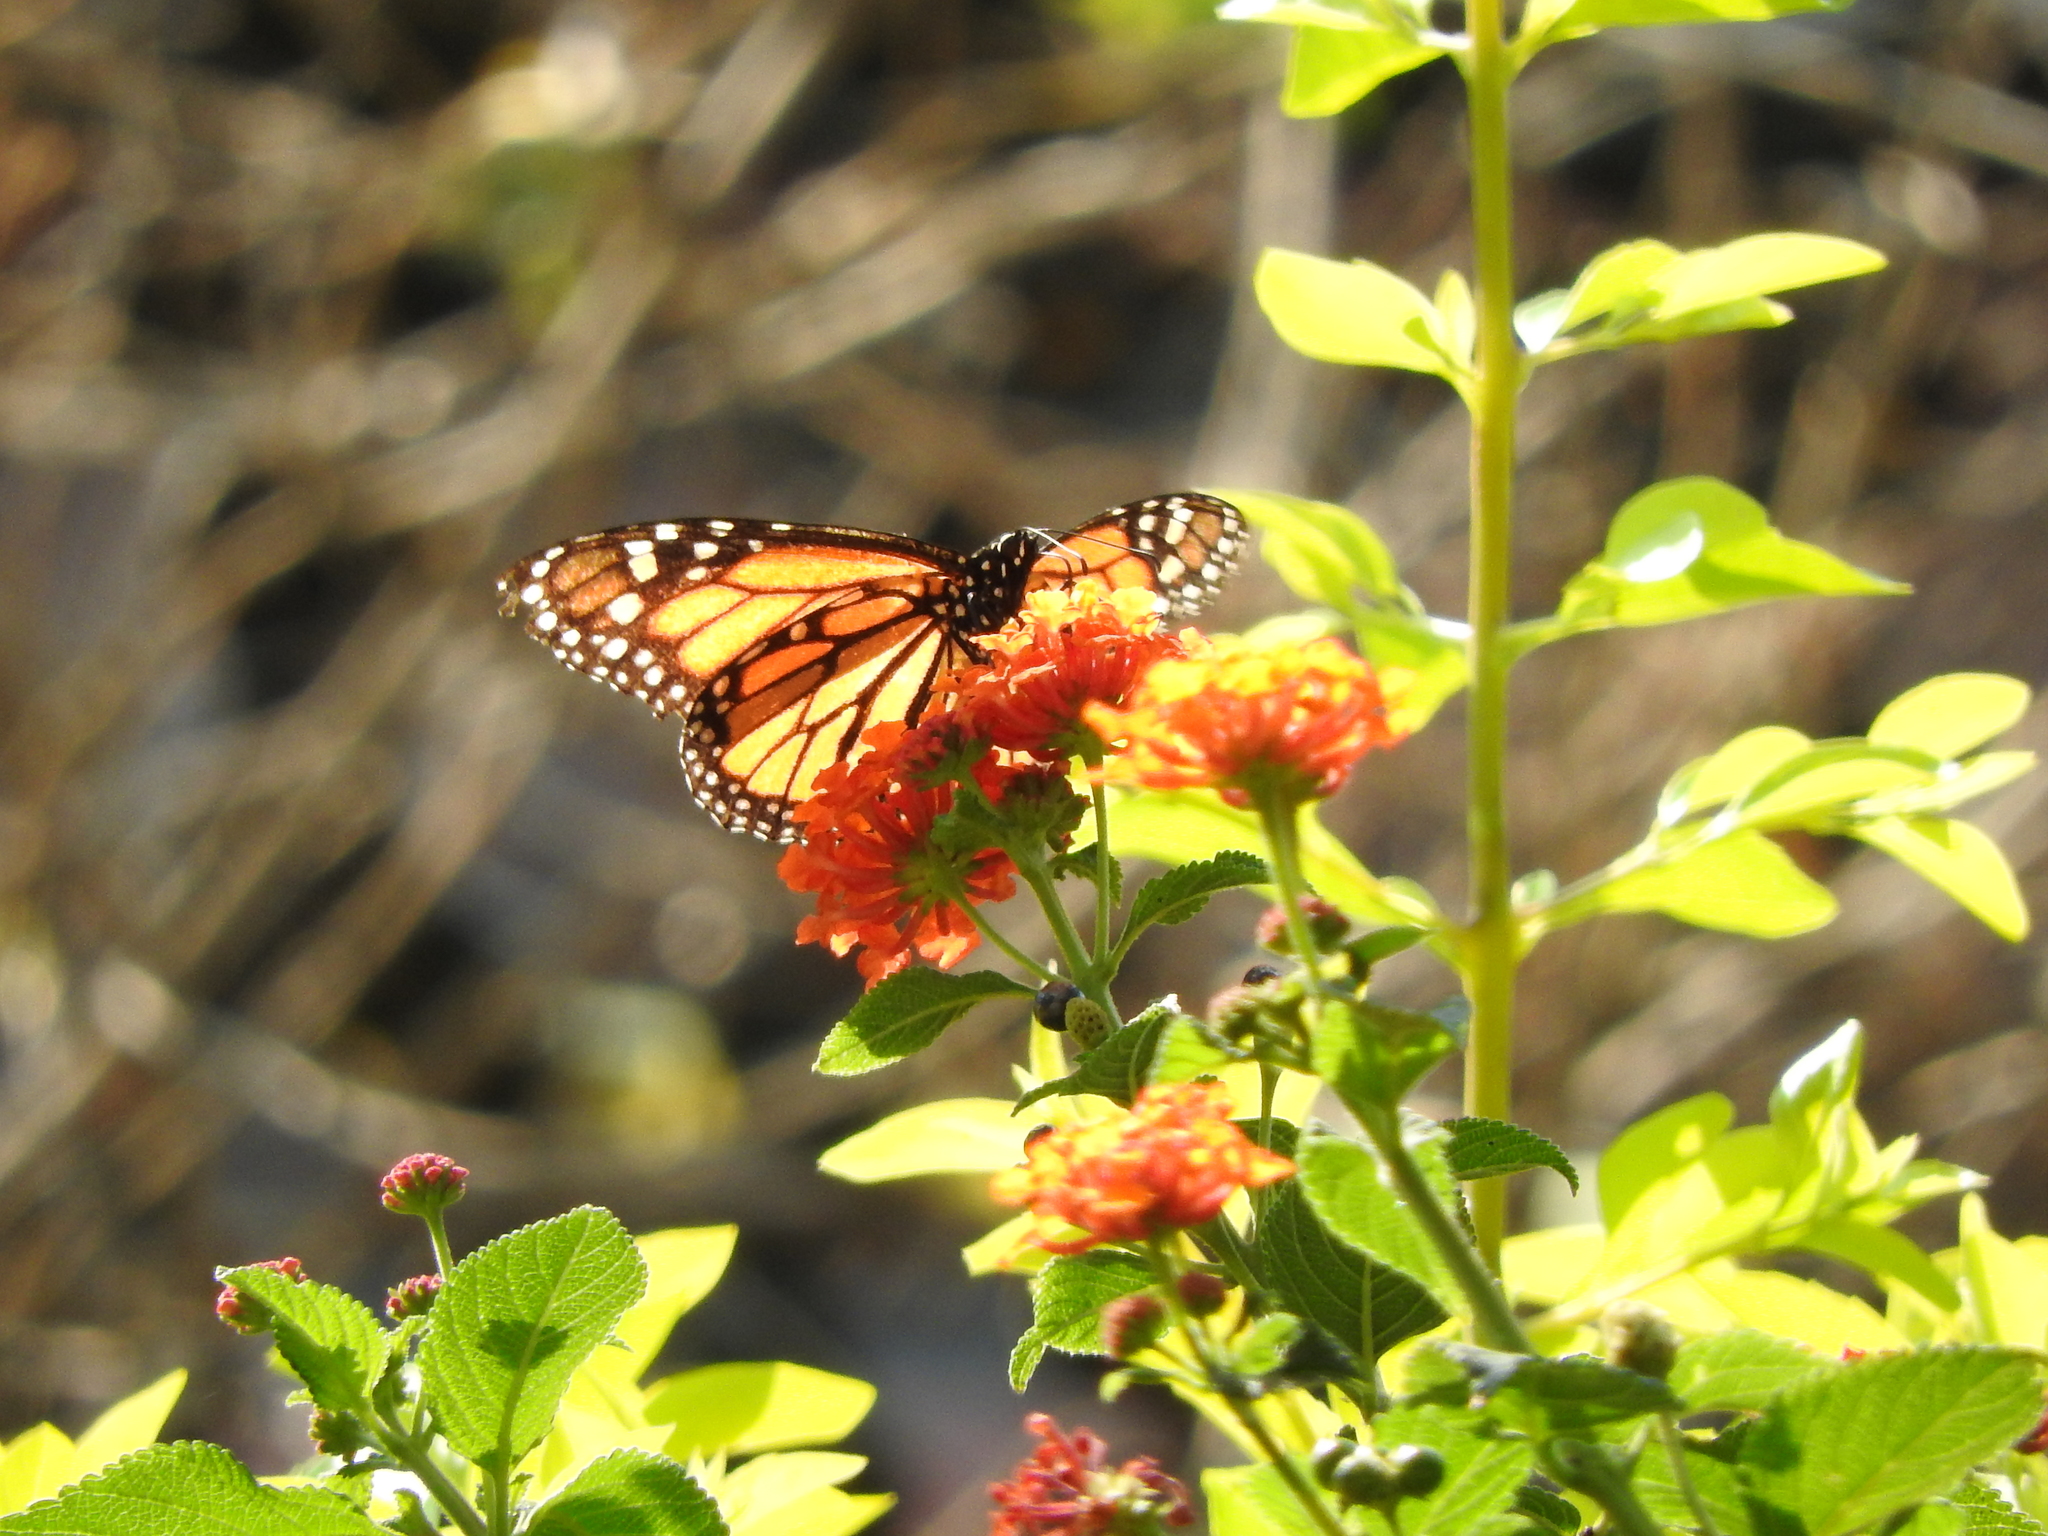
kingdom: Animalia
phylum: Arthropoda
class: Insecta
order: Lepidoptera
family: Nymphalidae
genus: Danaus
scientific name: Danaus plexippus
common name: Monarch
